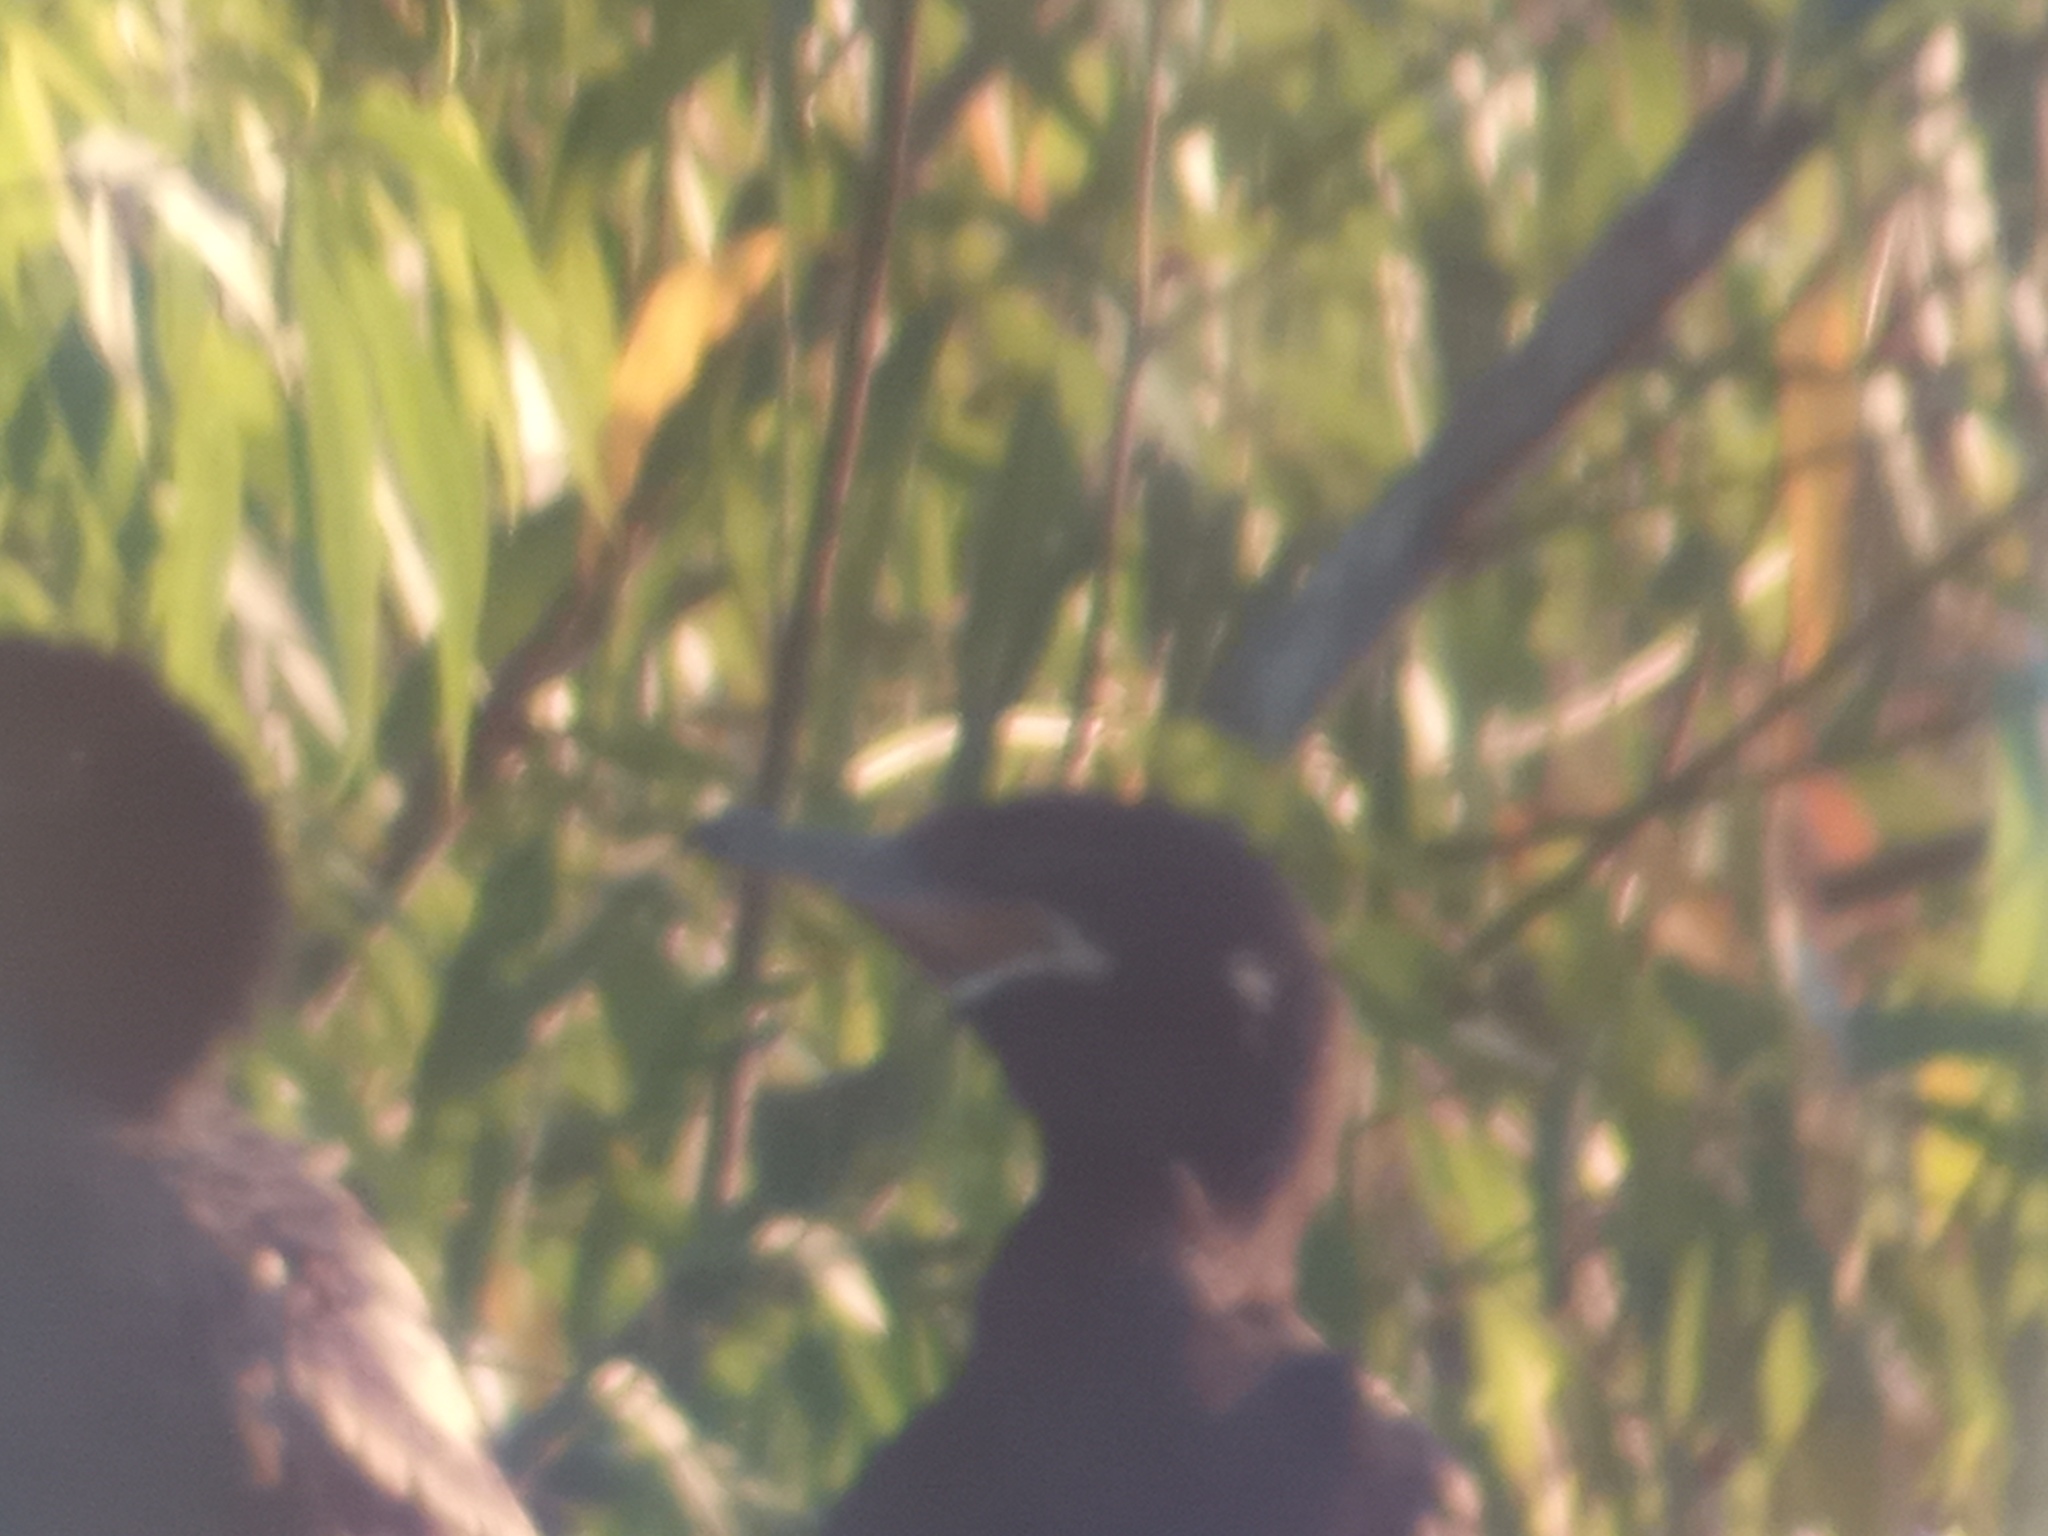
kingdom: Animalia
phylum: Chordata
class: Aves
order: Suliformes
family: Phalacrocoracidae
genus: Phalacrocorax
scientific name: Phalacrocorax brasilianus
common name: Neotropic cormorant
